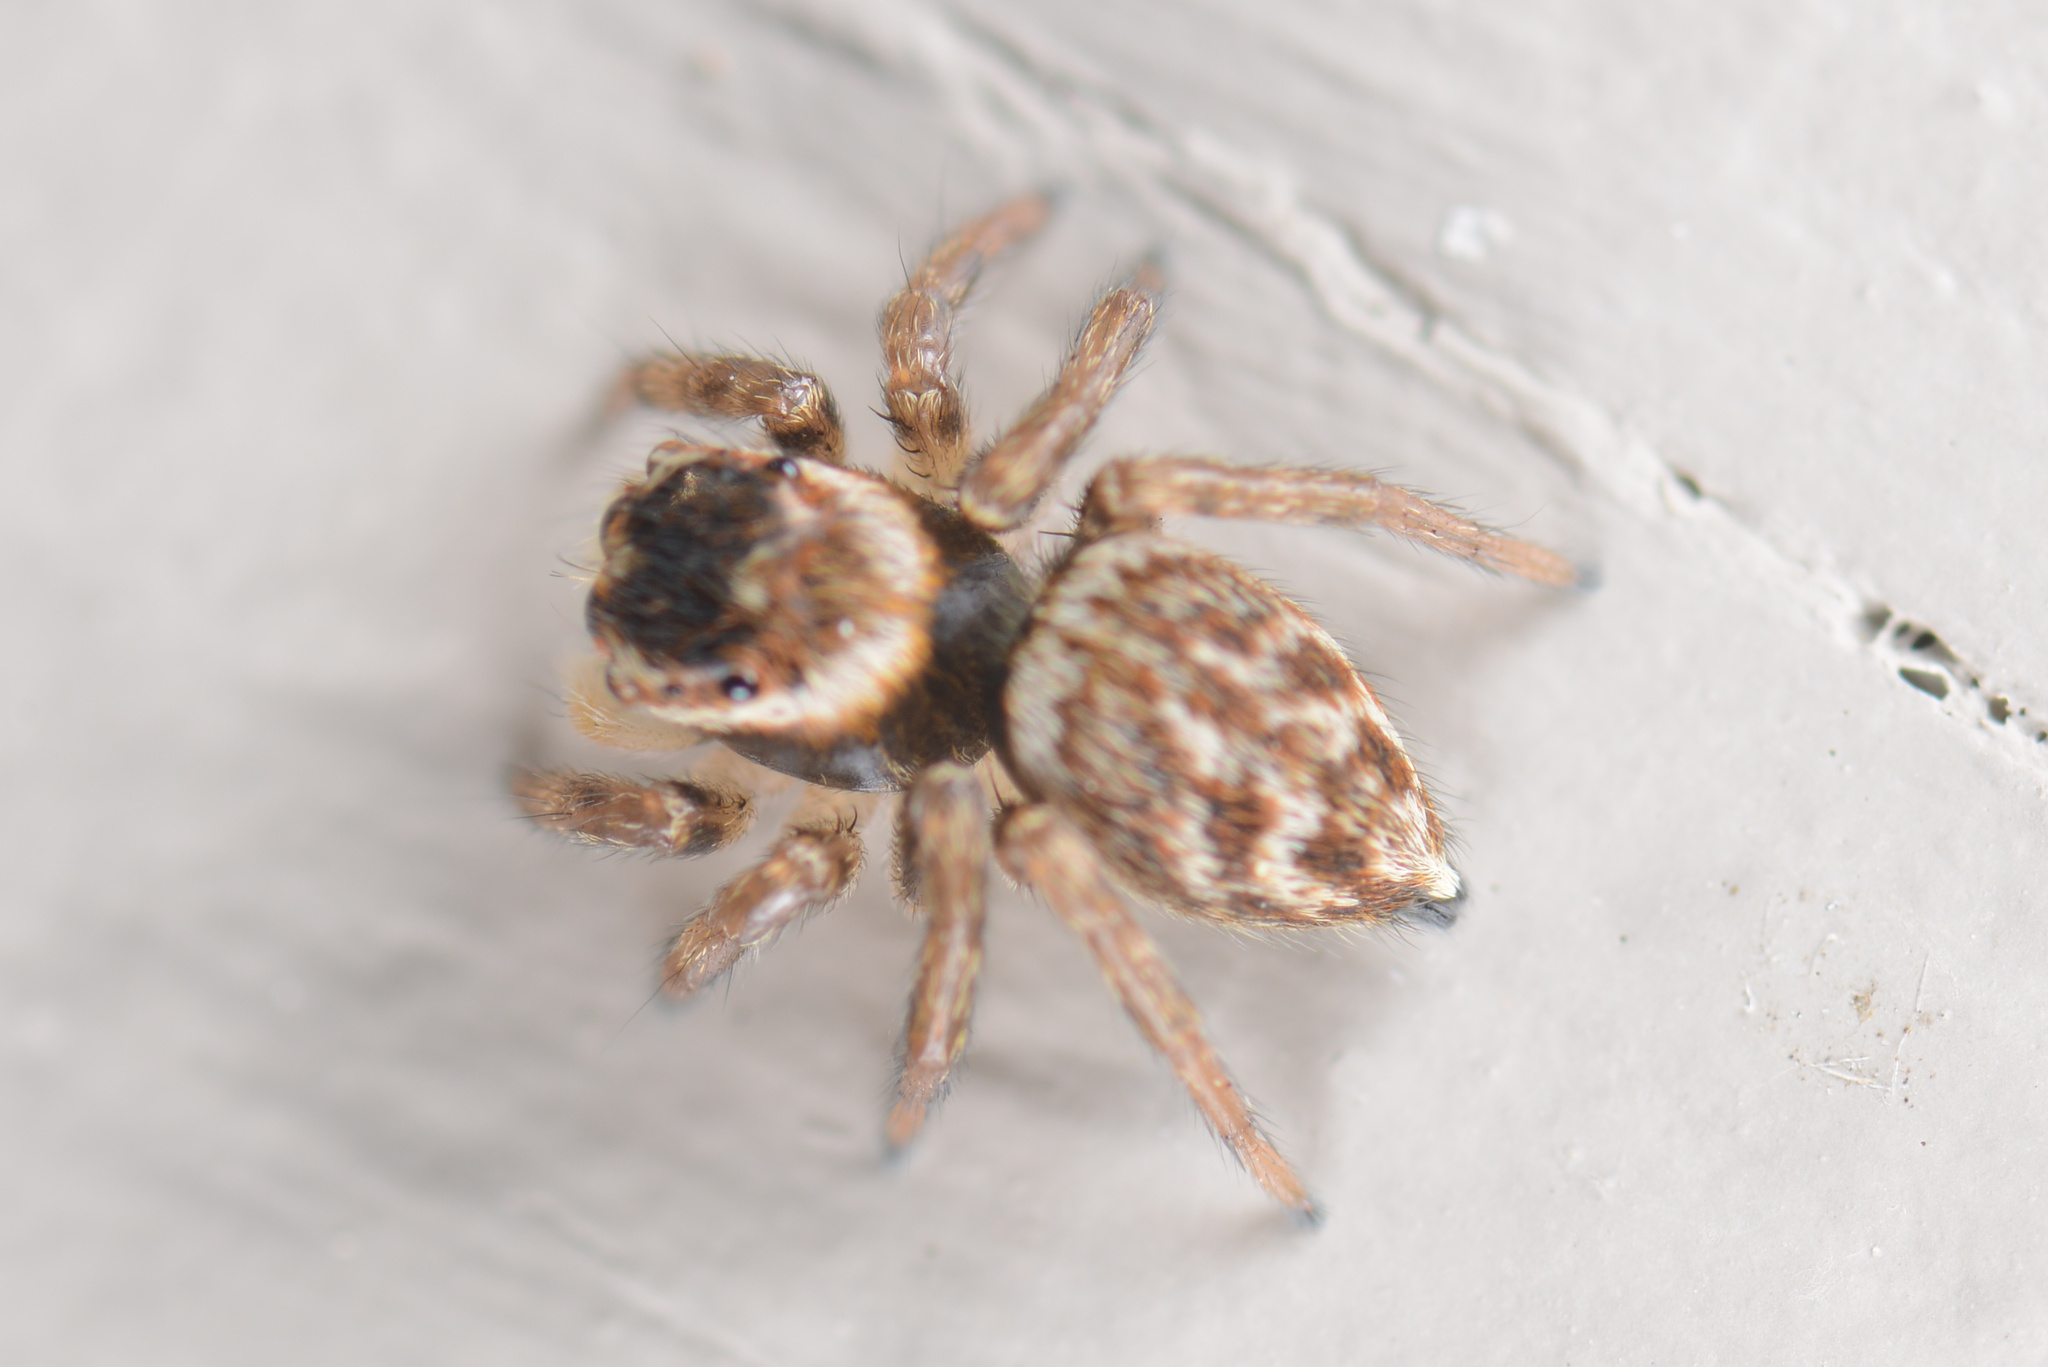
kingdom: Animalia
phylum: Arthropoda
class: Arachnida
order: Araneae
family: Salticidae
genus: Maratus
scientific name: Maratus griseus
